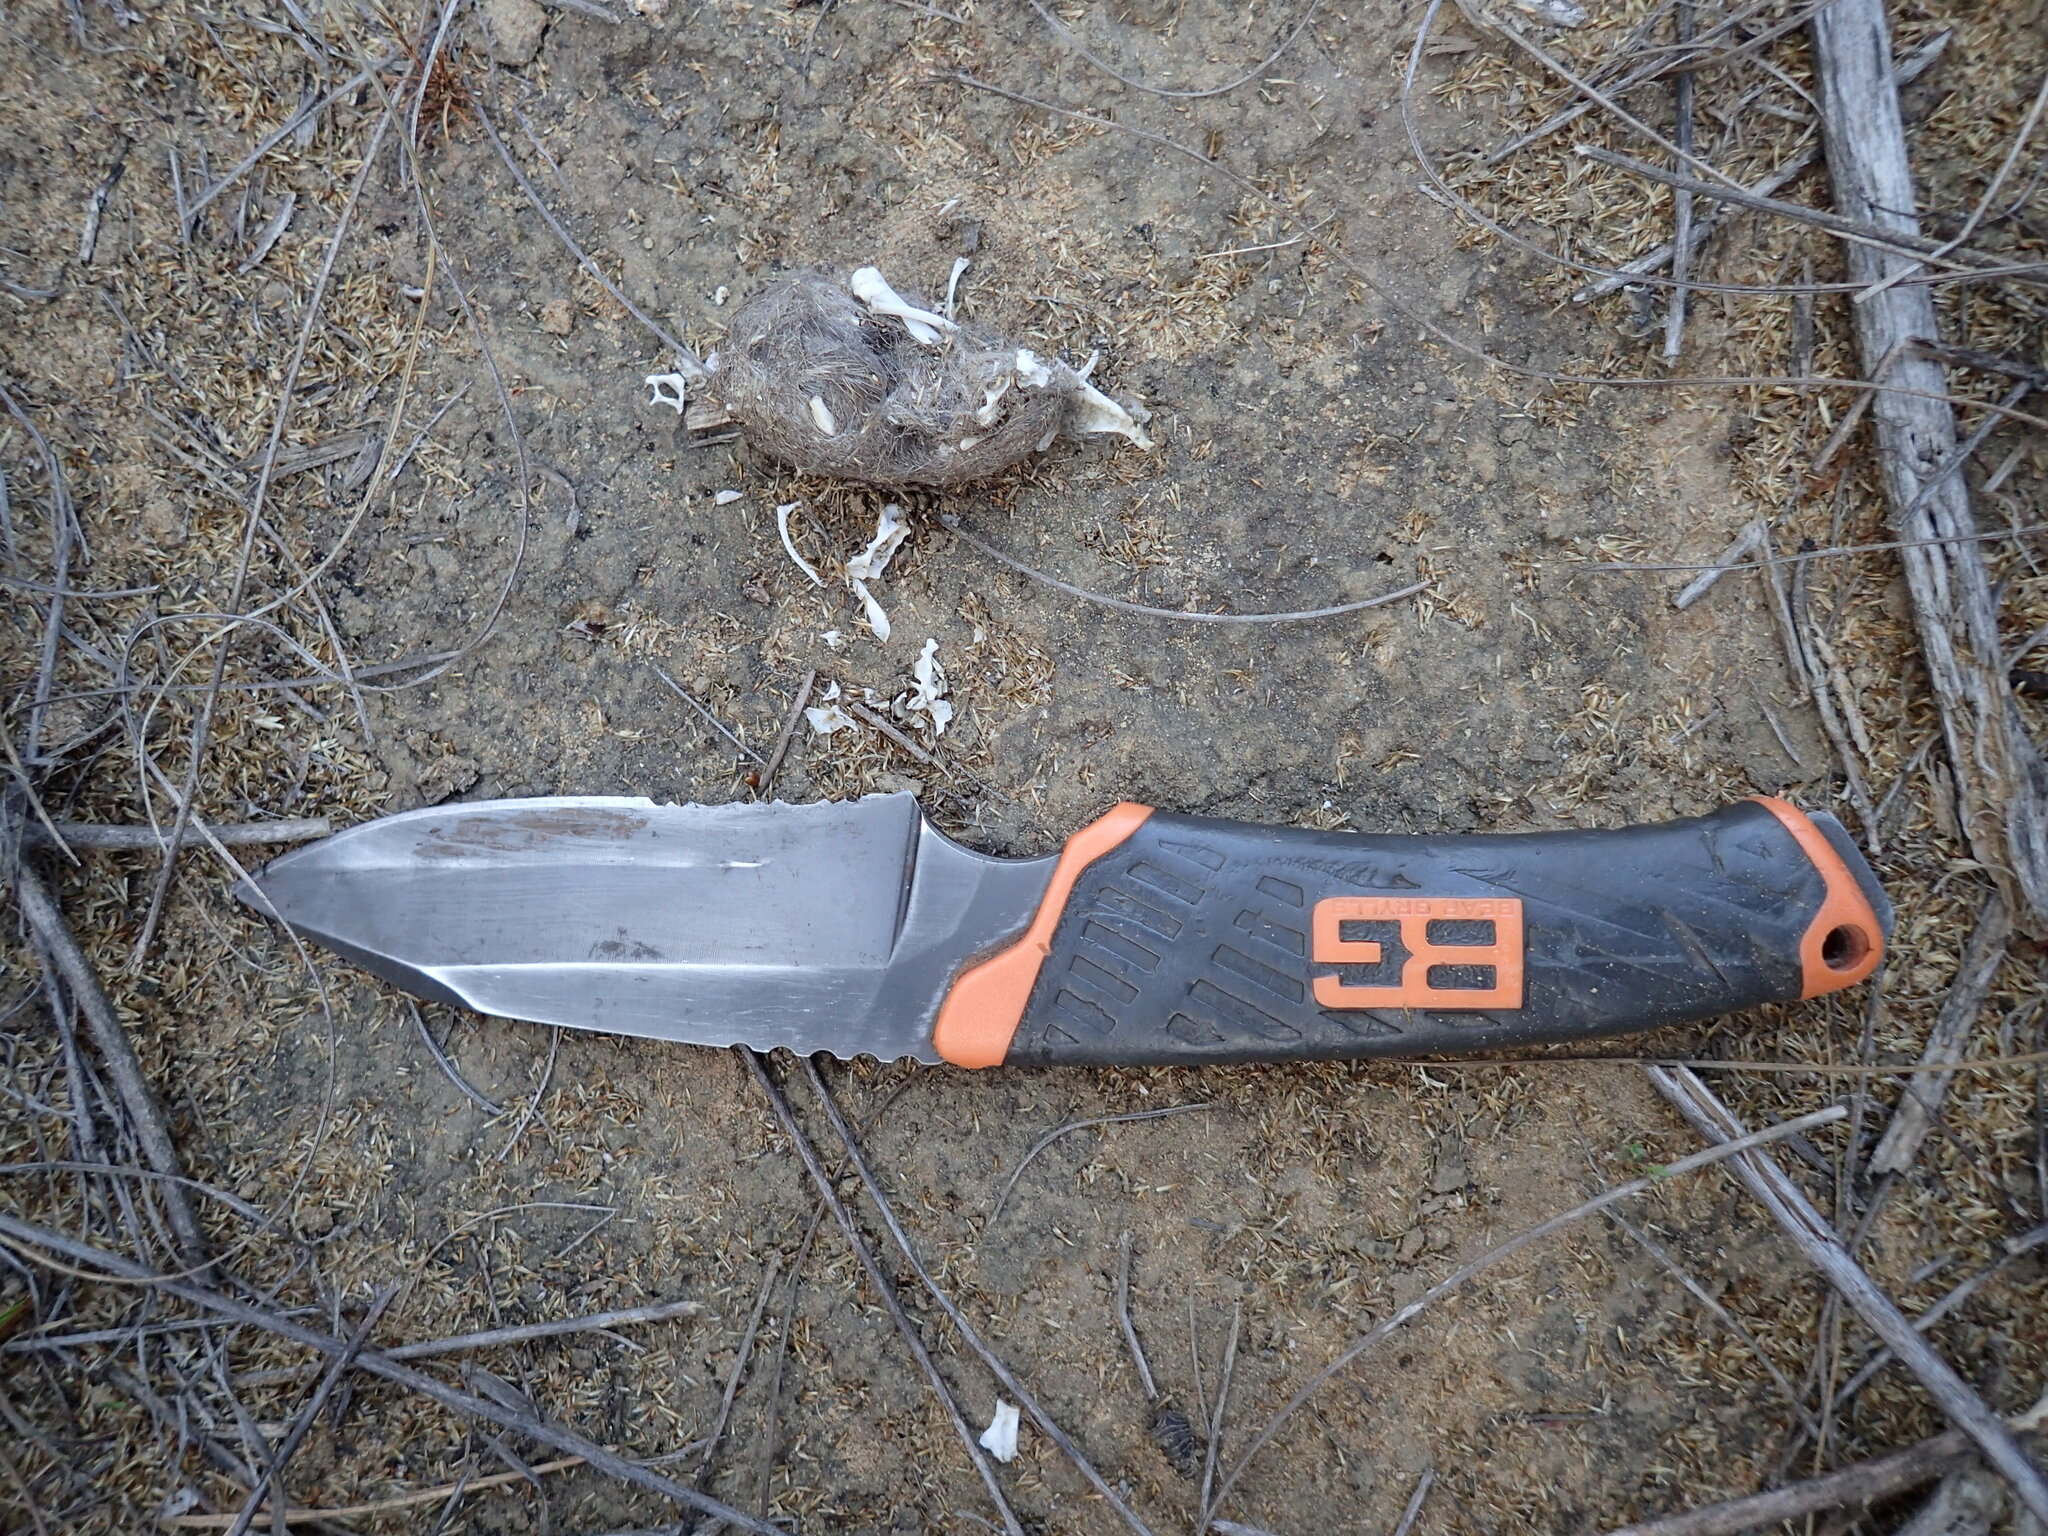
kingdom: Animalia
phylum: Chordata
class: Aves
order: Strigiformes
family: Strigidae
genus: Asio
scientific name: Asio capensis
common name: Marsh owl
